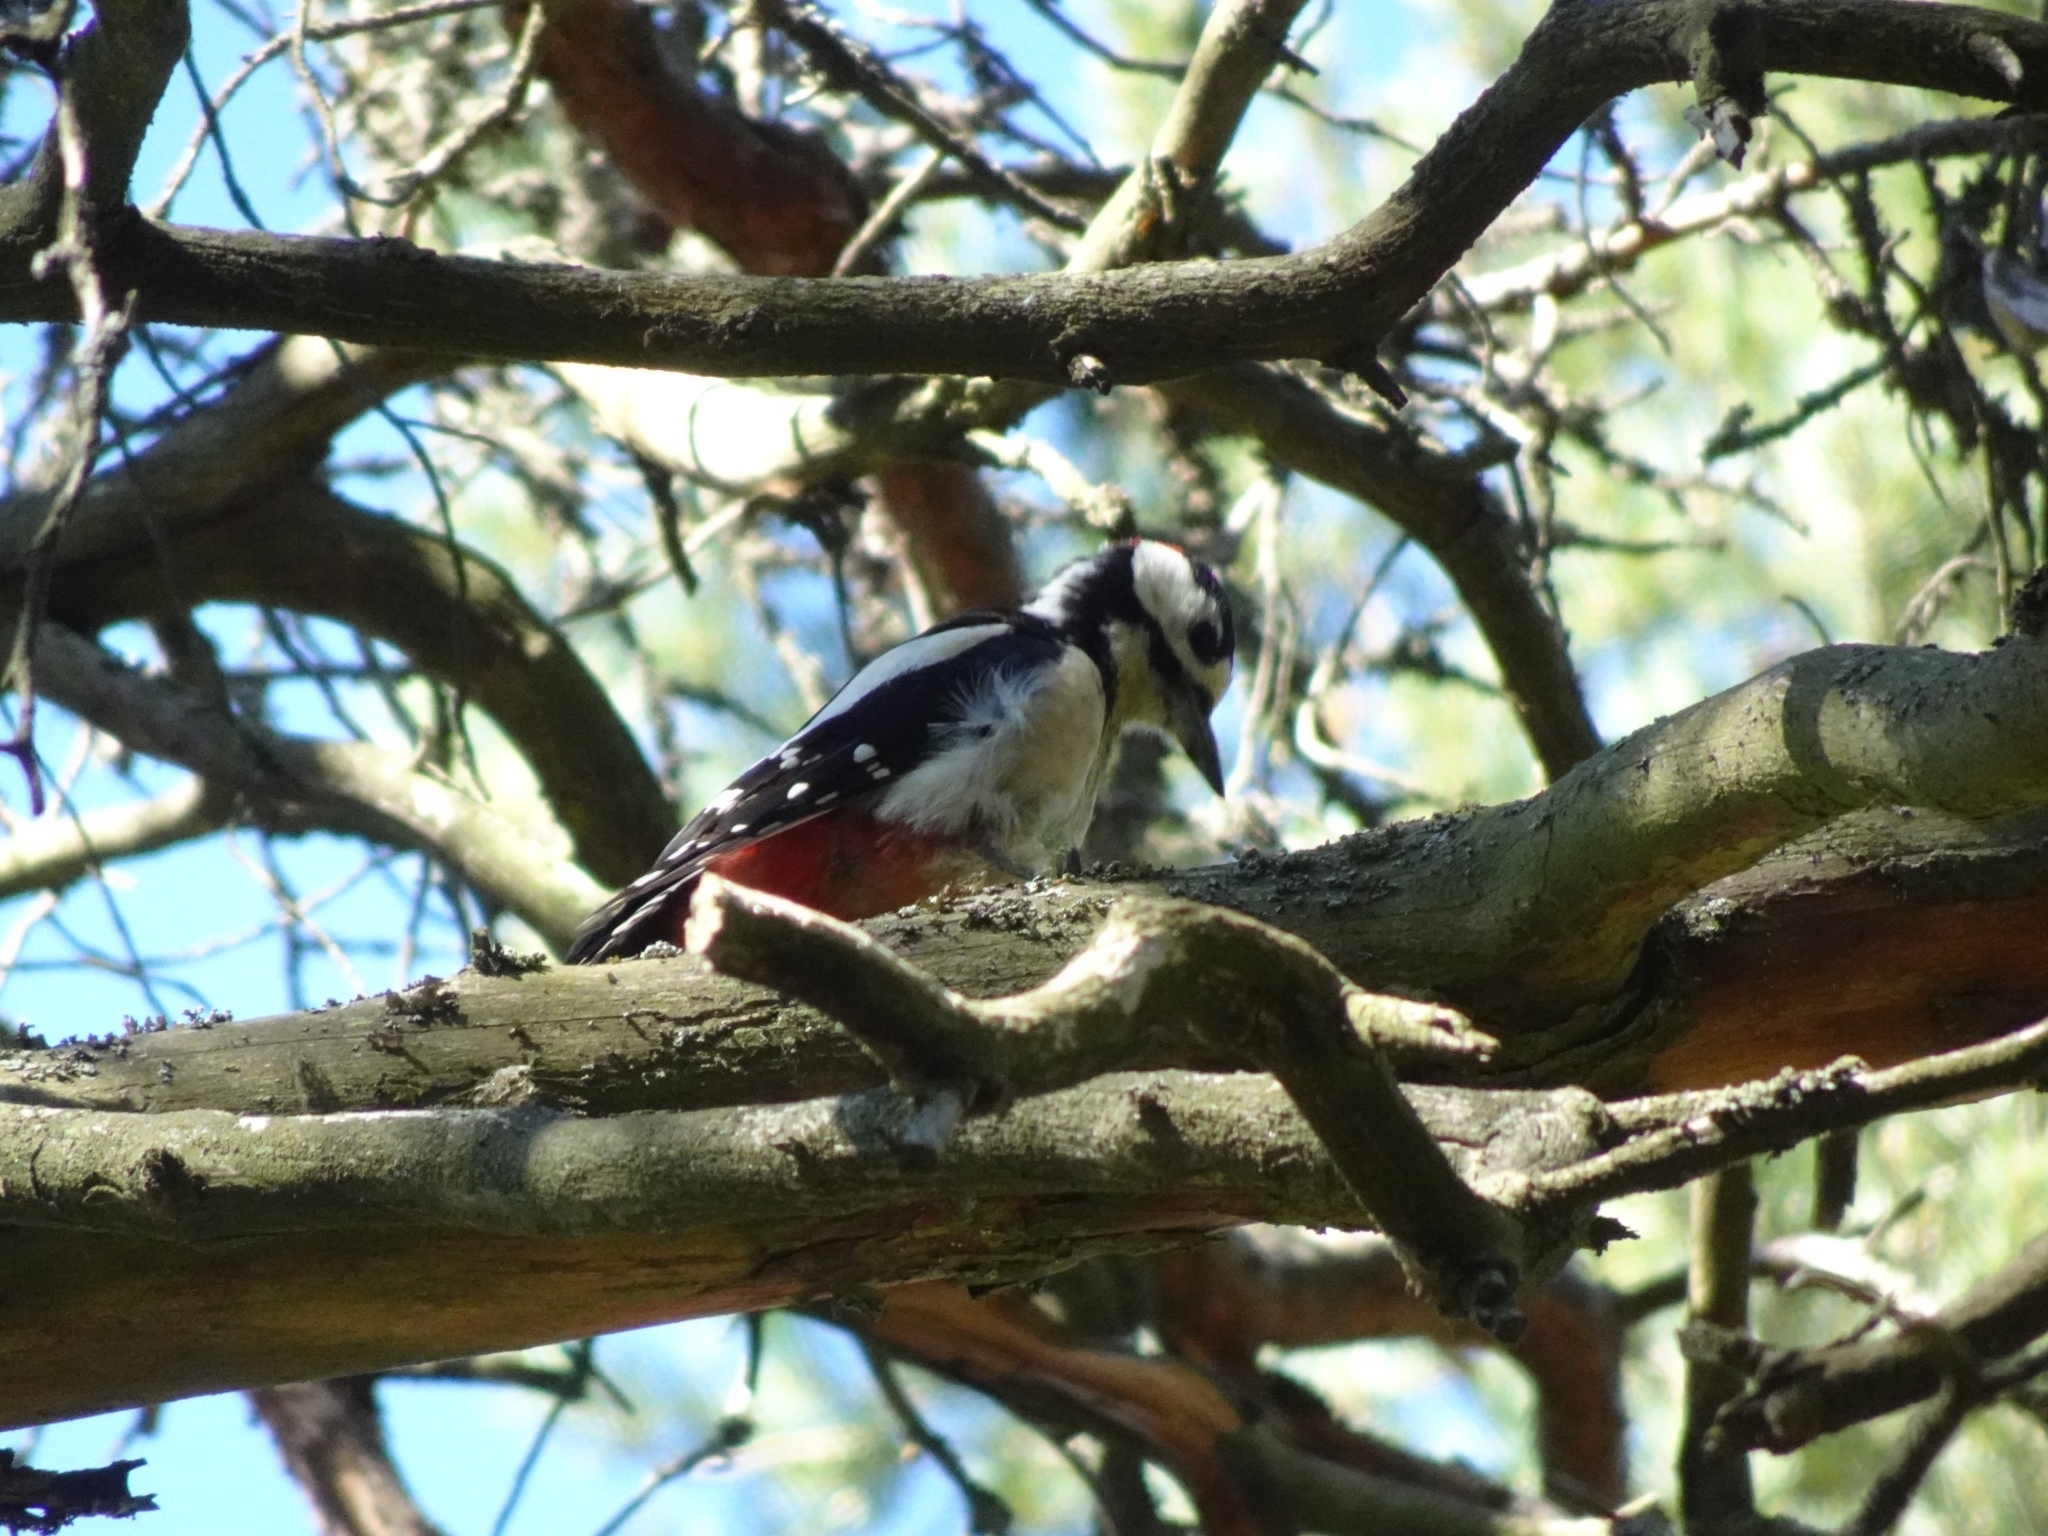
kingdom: Animalia
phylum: Chordata
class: Aves
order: Piciformes
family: Picidae
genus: Dendrocopos
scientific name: Dendrocopos major
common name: Great spotted woodpecker
